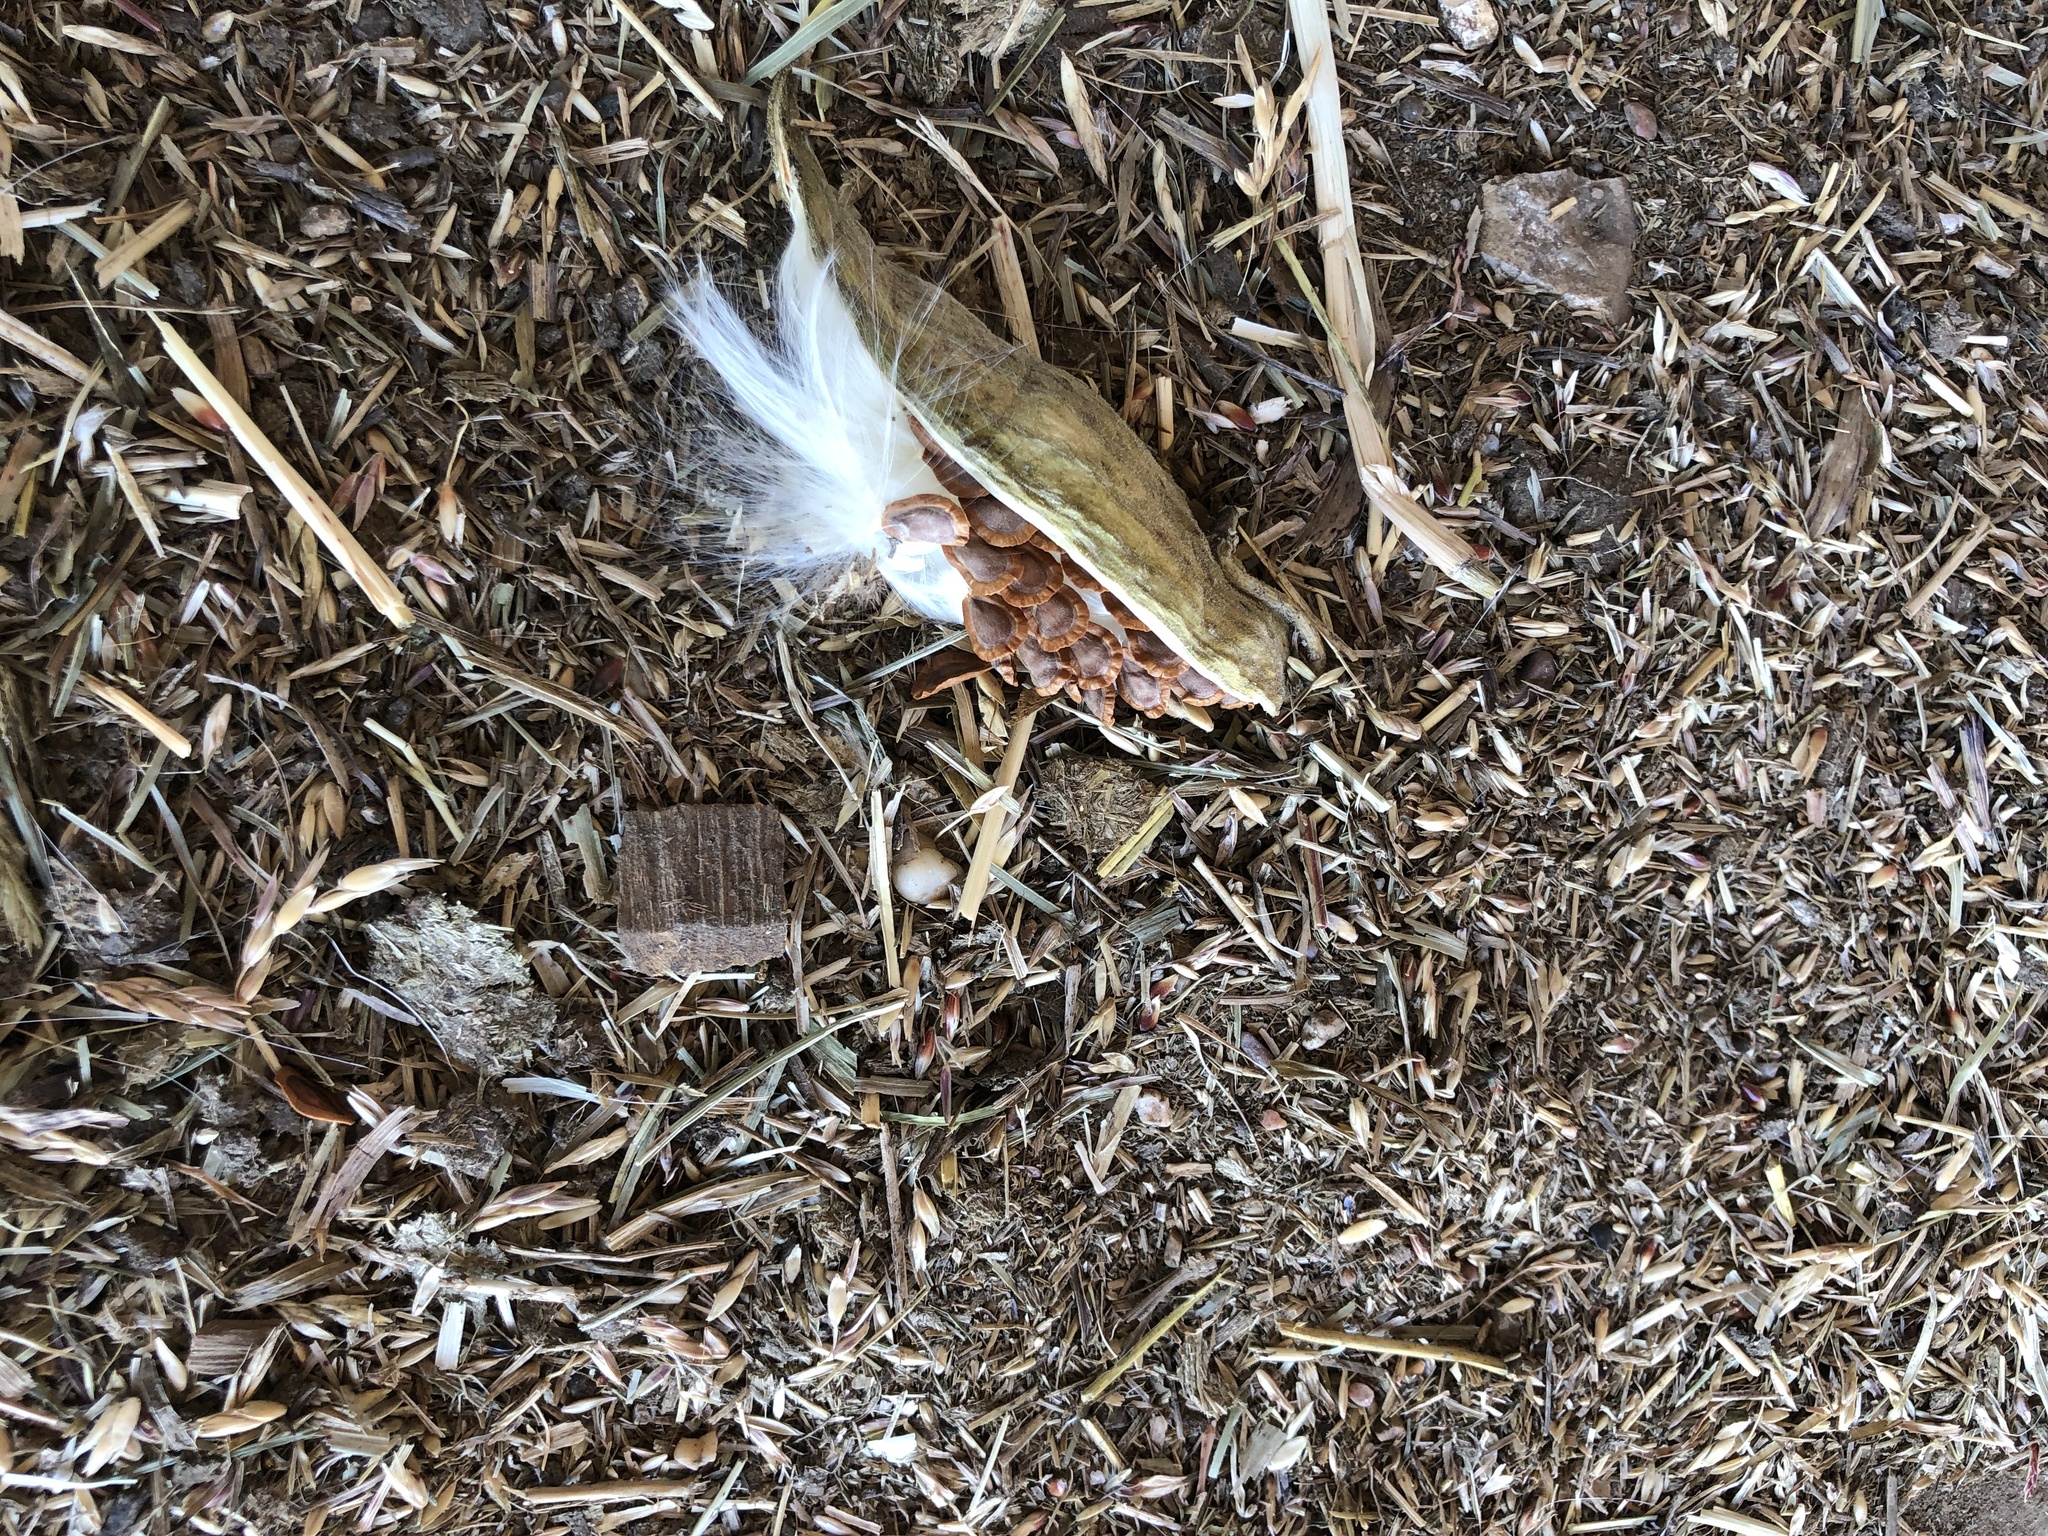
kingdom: Plantae
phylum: Tracheophyta
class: Magnoliopsida
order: Gentianales
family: Apocynaceae
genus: Asclepias
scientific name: Asclepias oenotheroides
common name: Zizotes milkweed
